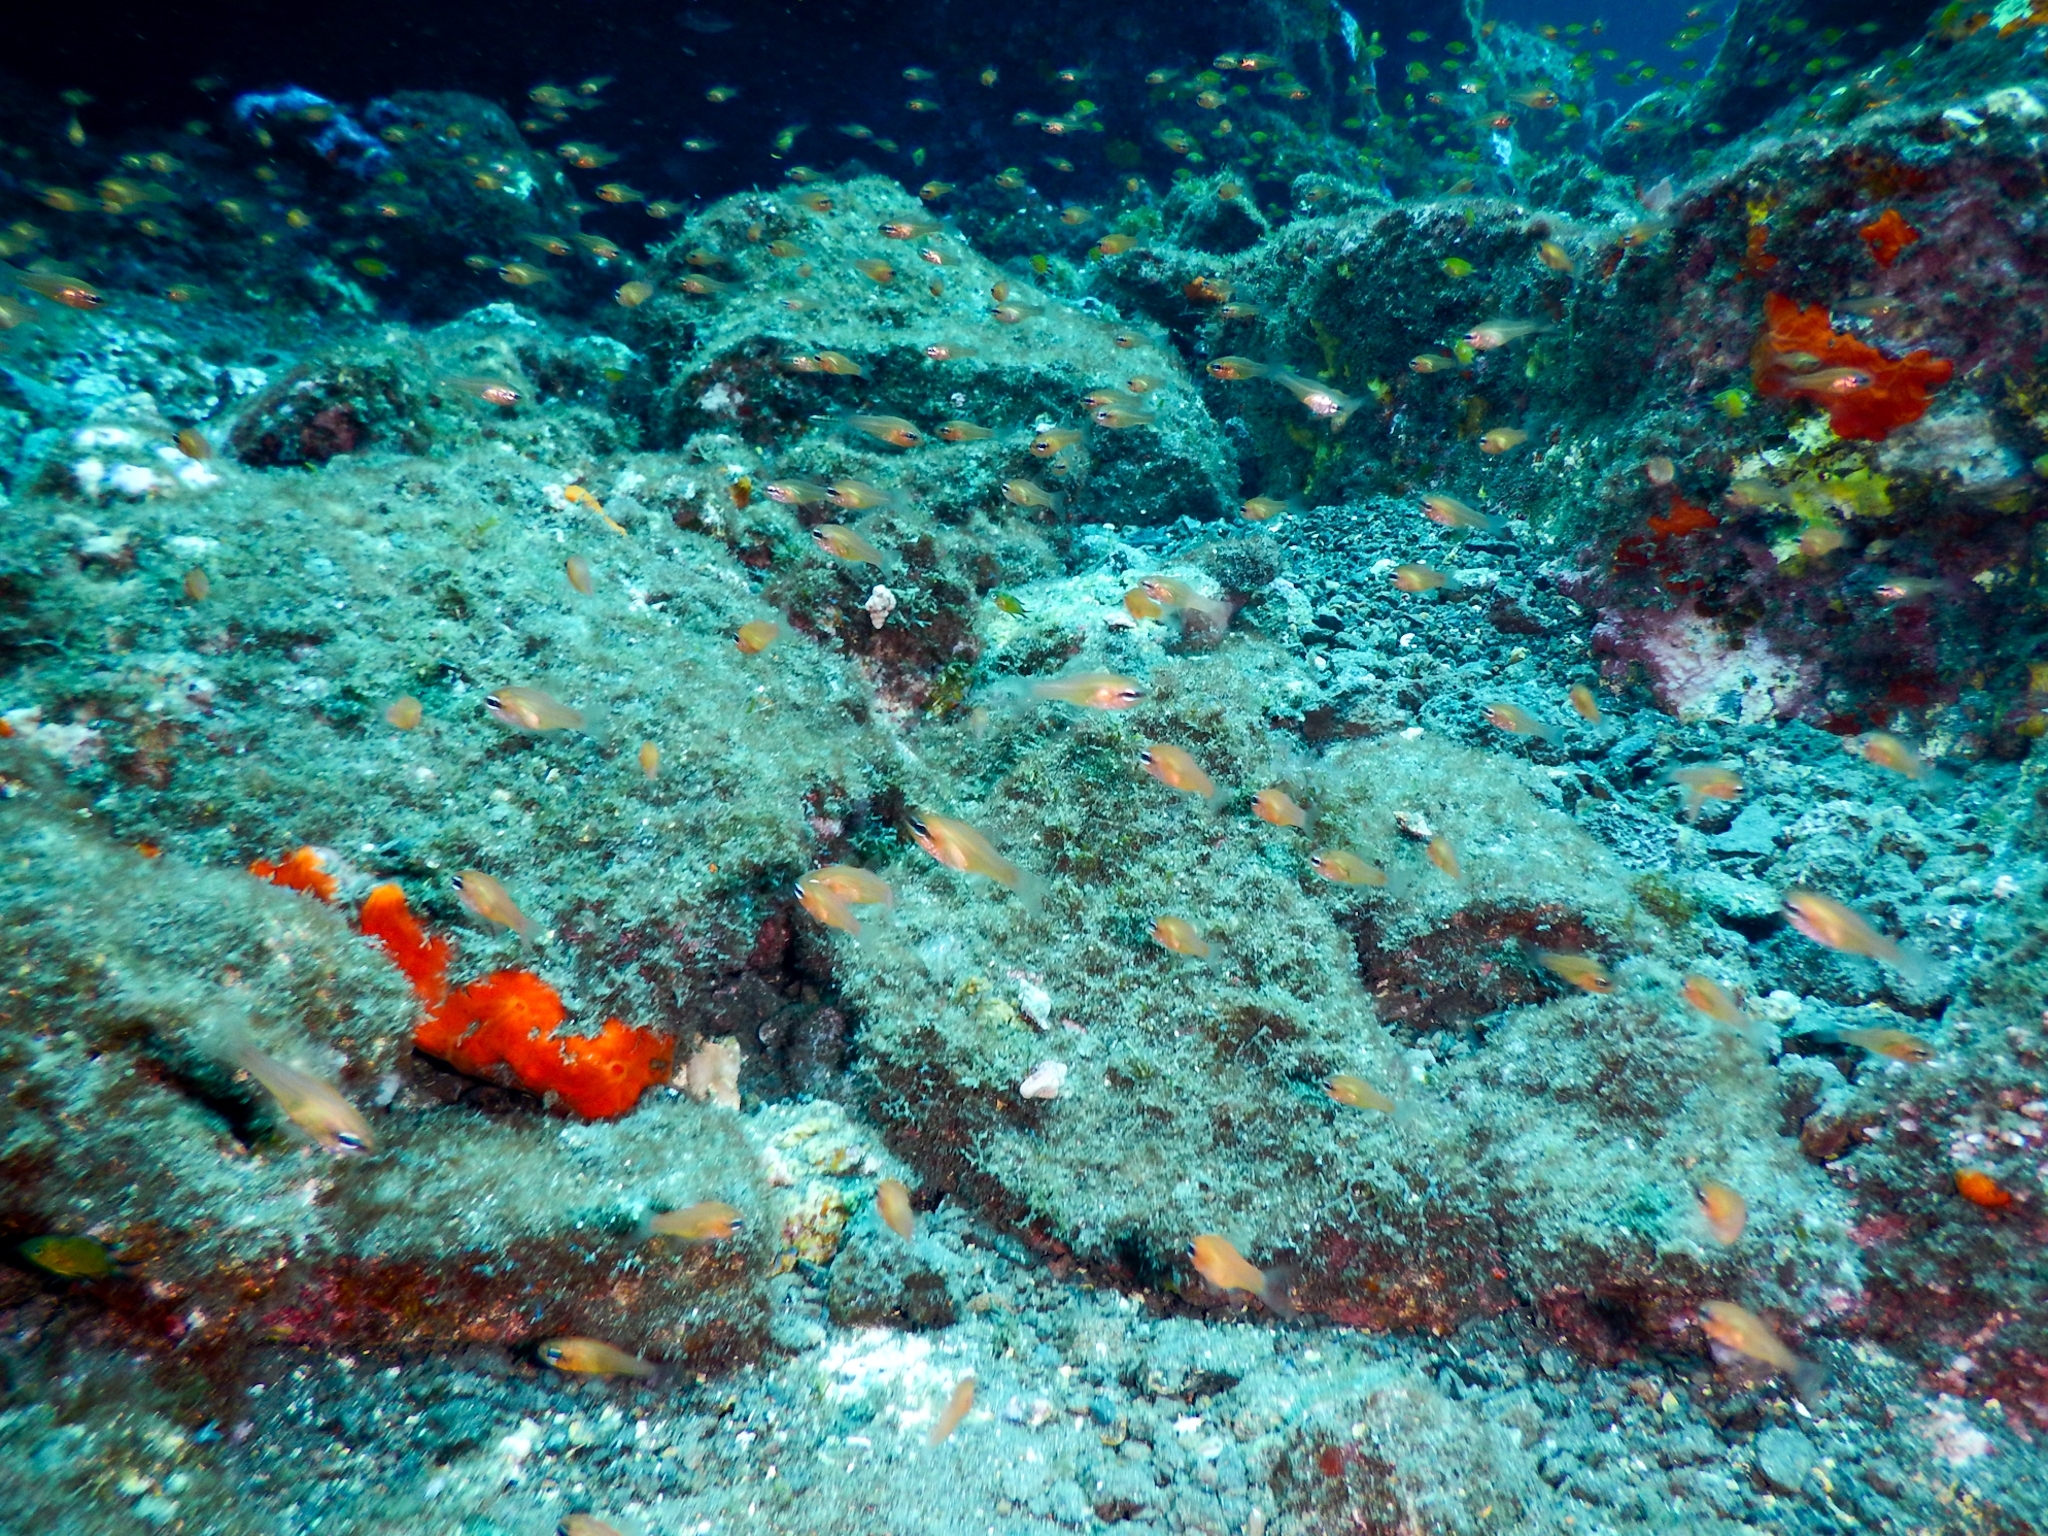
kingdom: Animalia
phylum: Chordata
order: Perciformes
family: Apogonidae
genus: Apogon
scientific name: Apogon imberbis
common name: Cardinal fish
